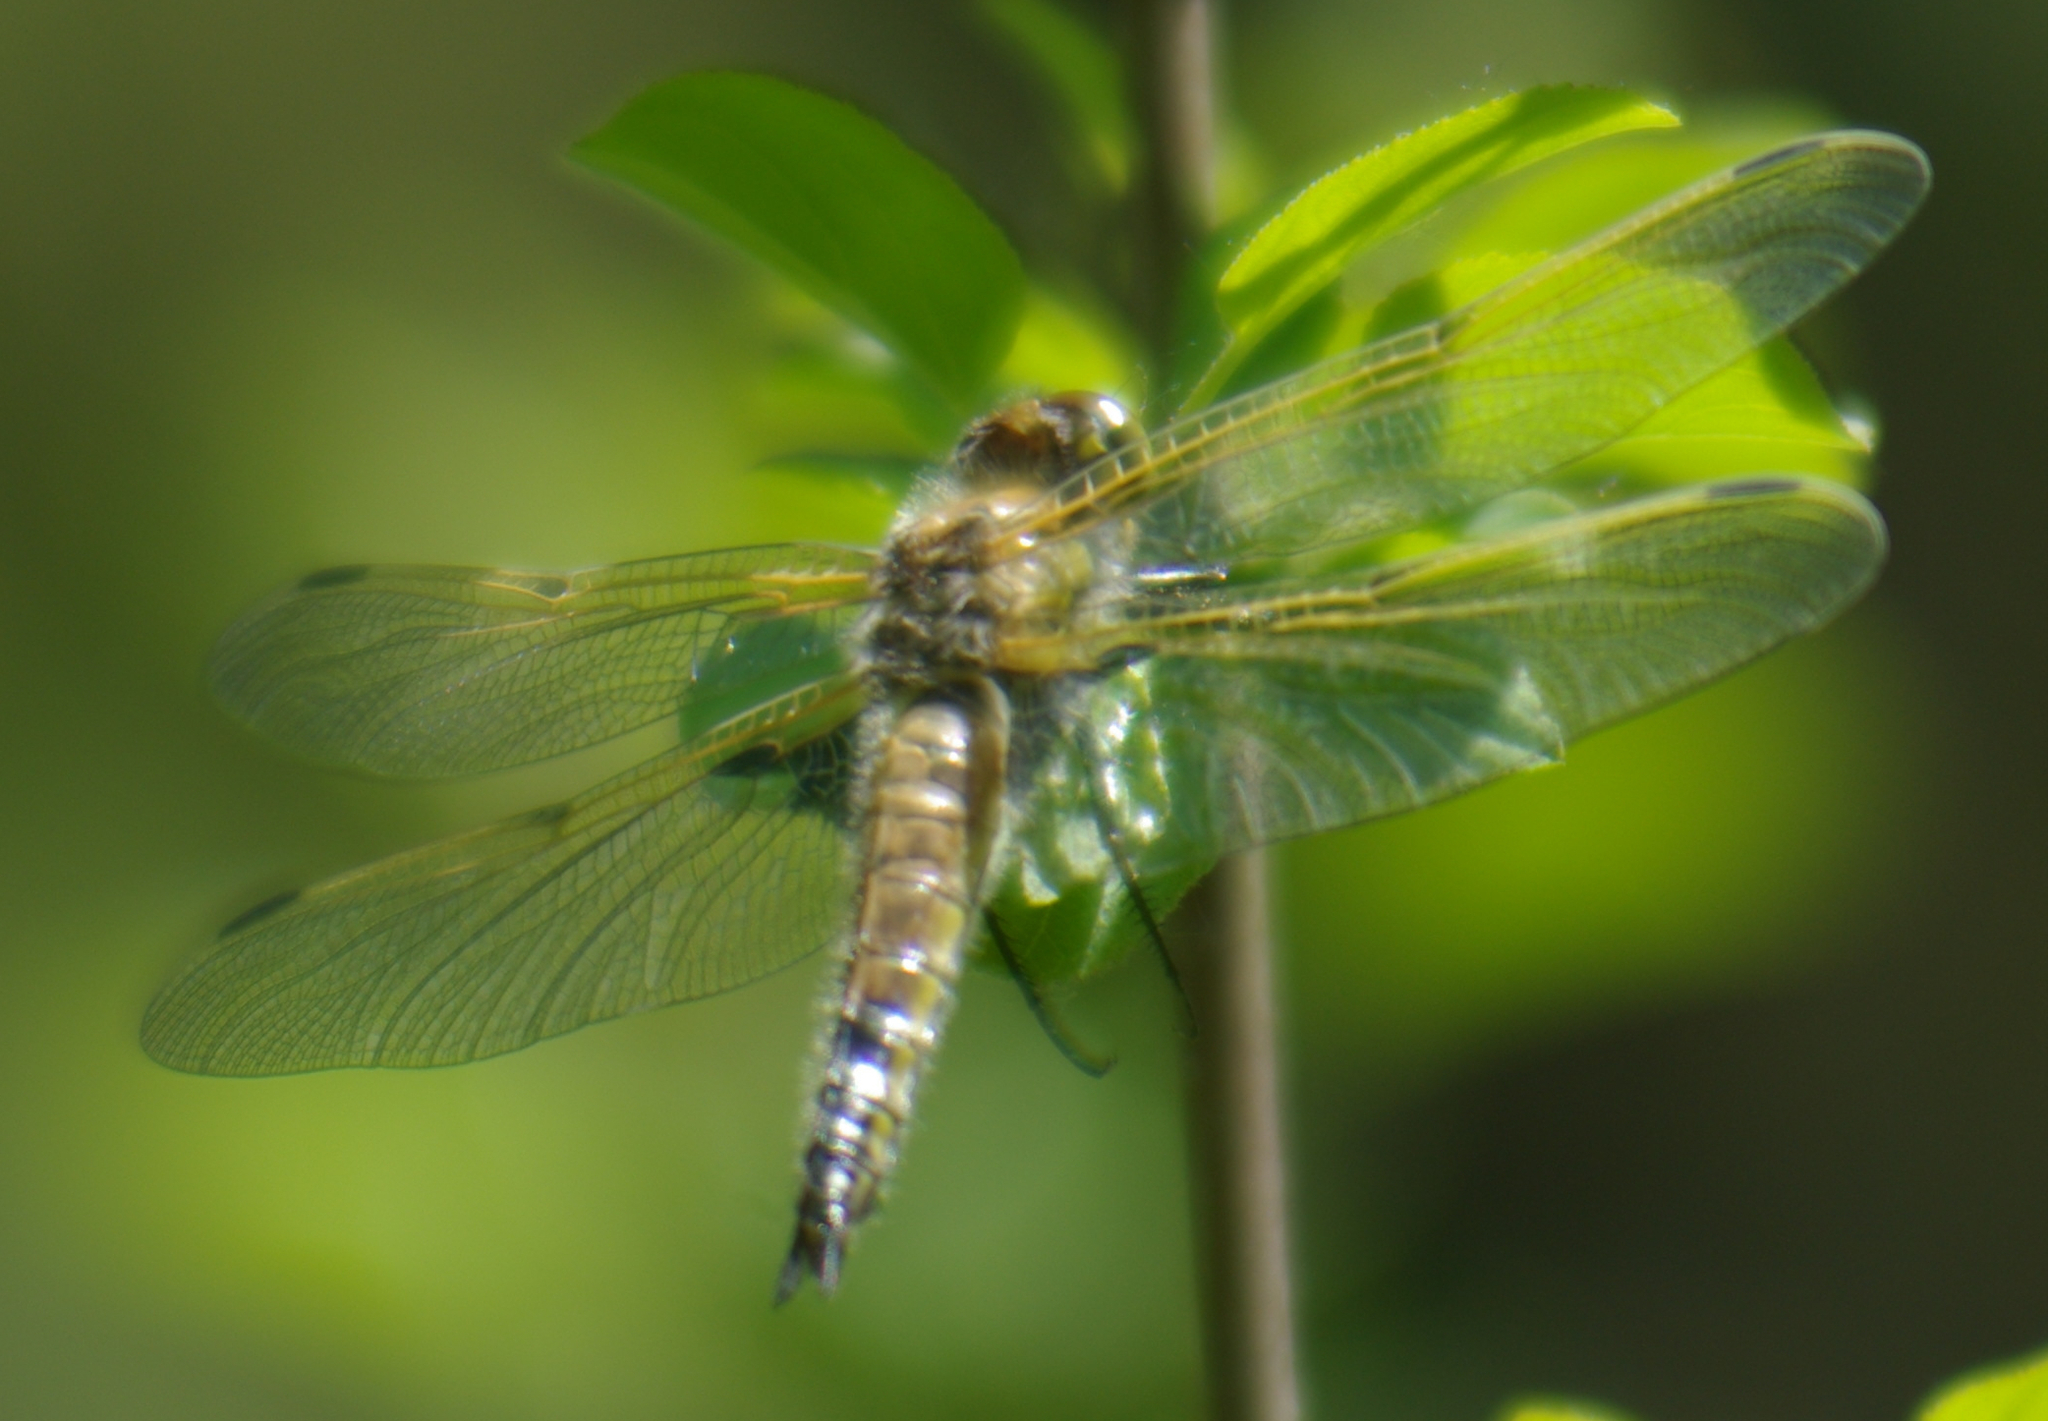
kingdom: Animalia
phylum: Arthropoda
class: Insecta
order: Odonata
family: Libellulidae
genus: Libellula
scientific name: Libellula quadrimaculata
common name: Four-spotted chaser
